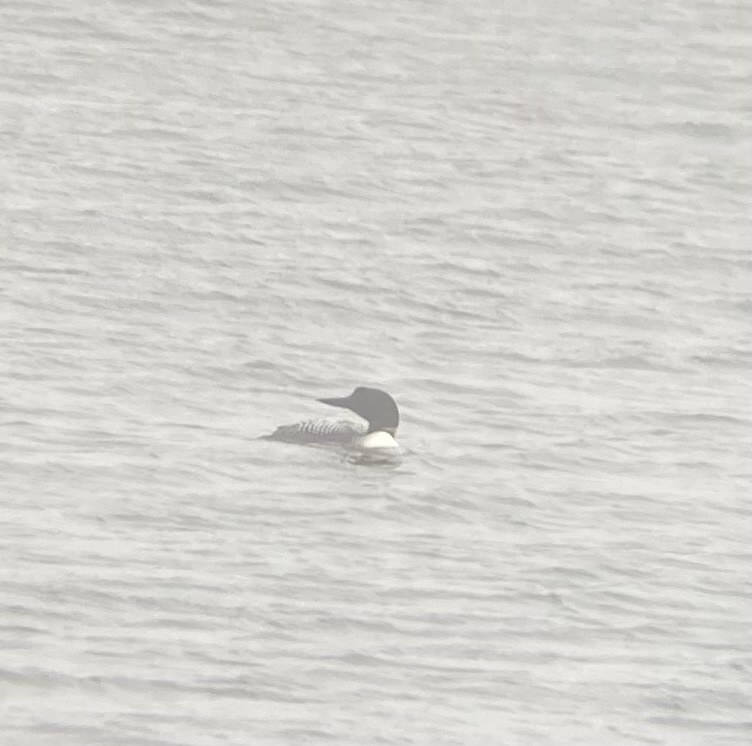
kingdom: Animalia
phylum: Chordata
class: Aves
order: Gaviiformes
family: Gaviidae
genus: Gavia
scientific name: Gavia immer
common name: Common loon
